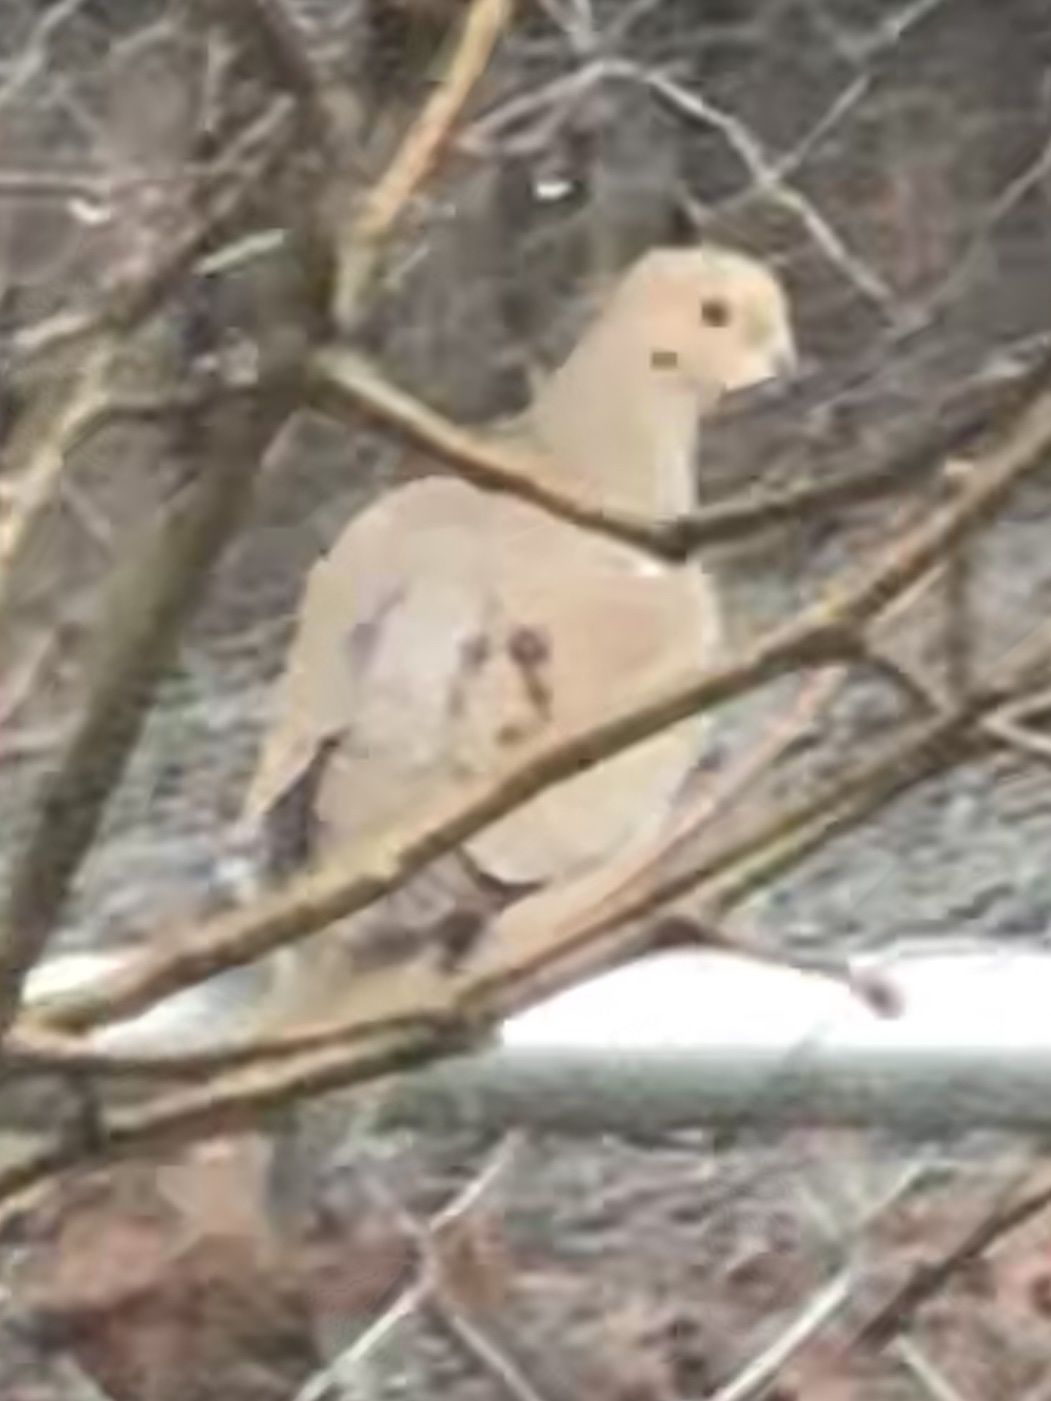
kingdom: Animalia
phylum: Chordata
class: Aves
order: Columbiformes
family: Columbidae
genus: Zenaida
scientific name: Zenaida macroura
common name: Mourning dove
